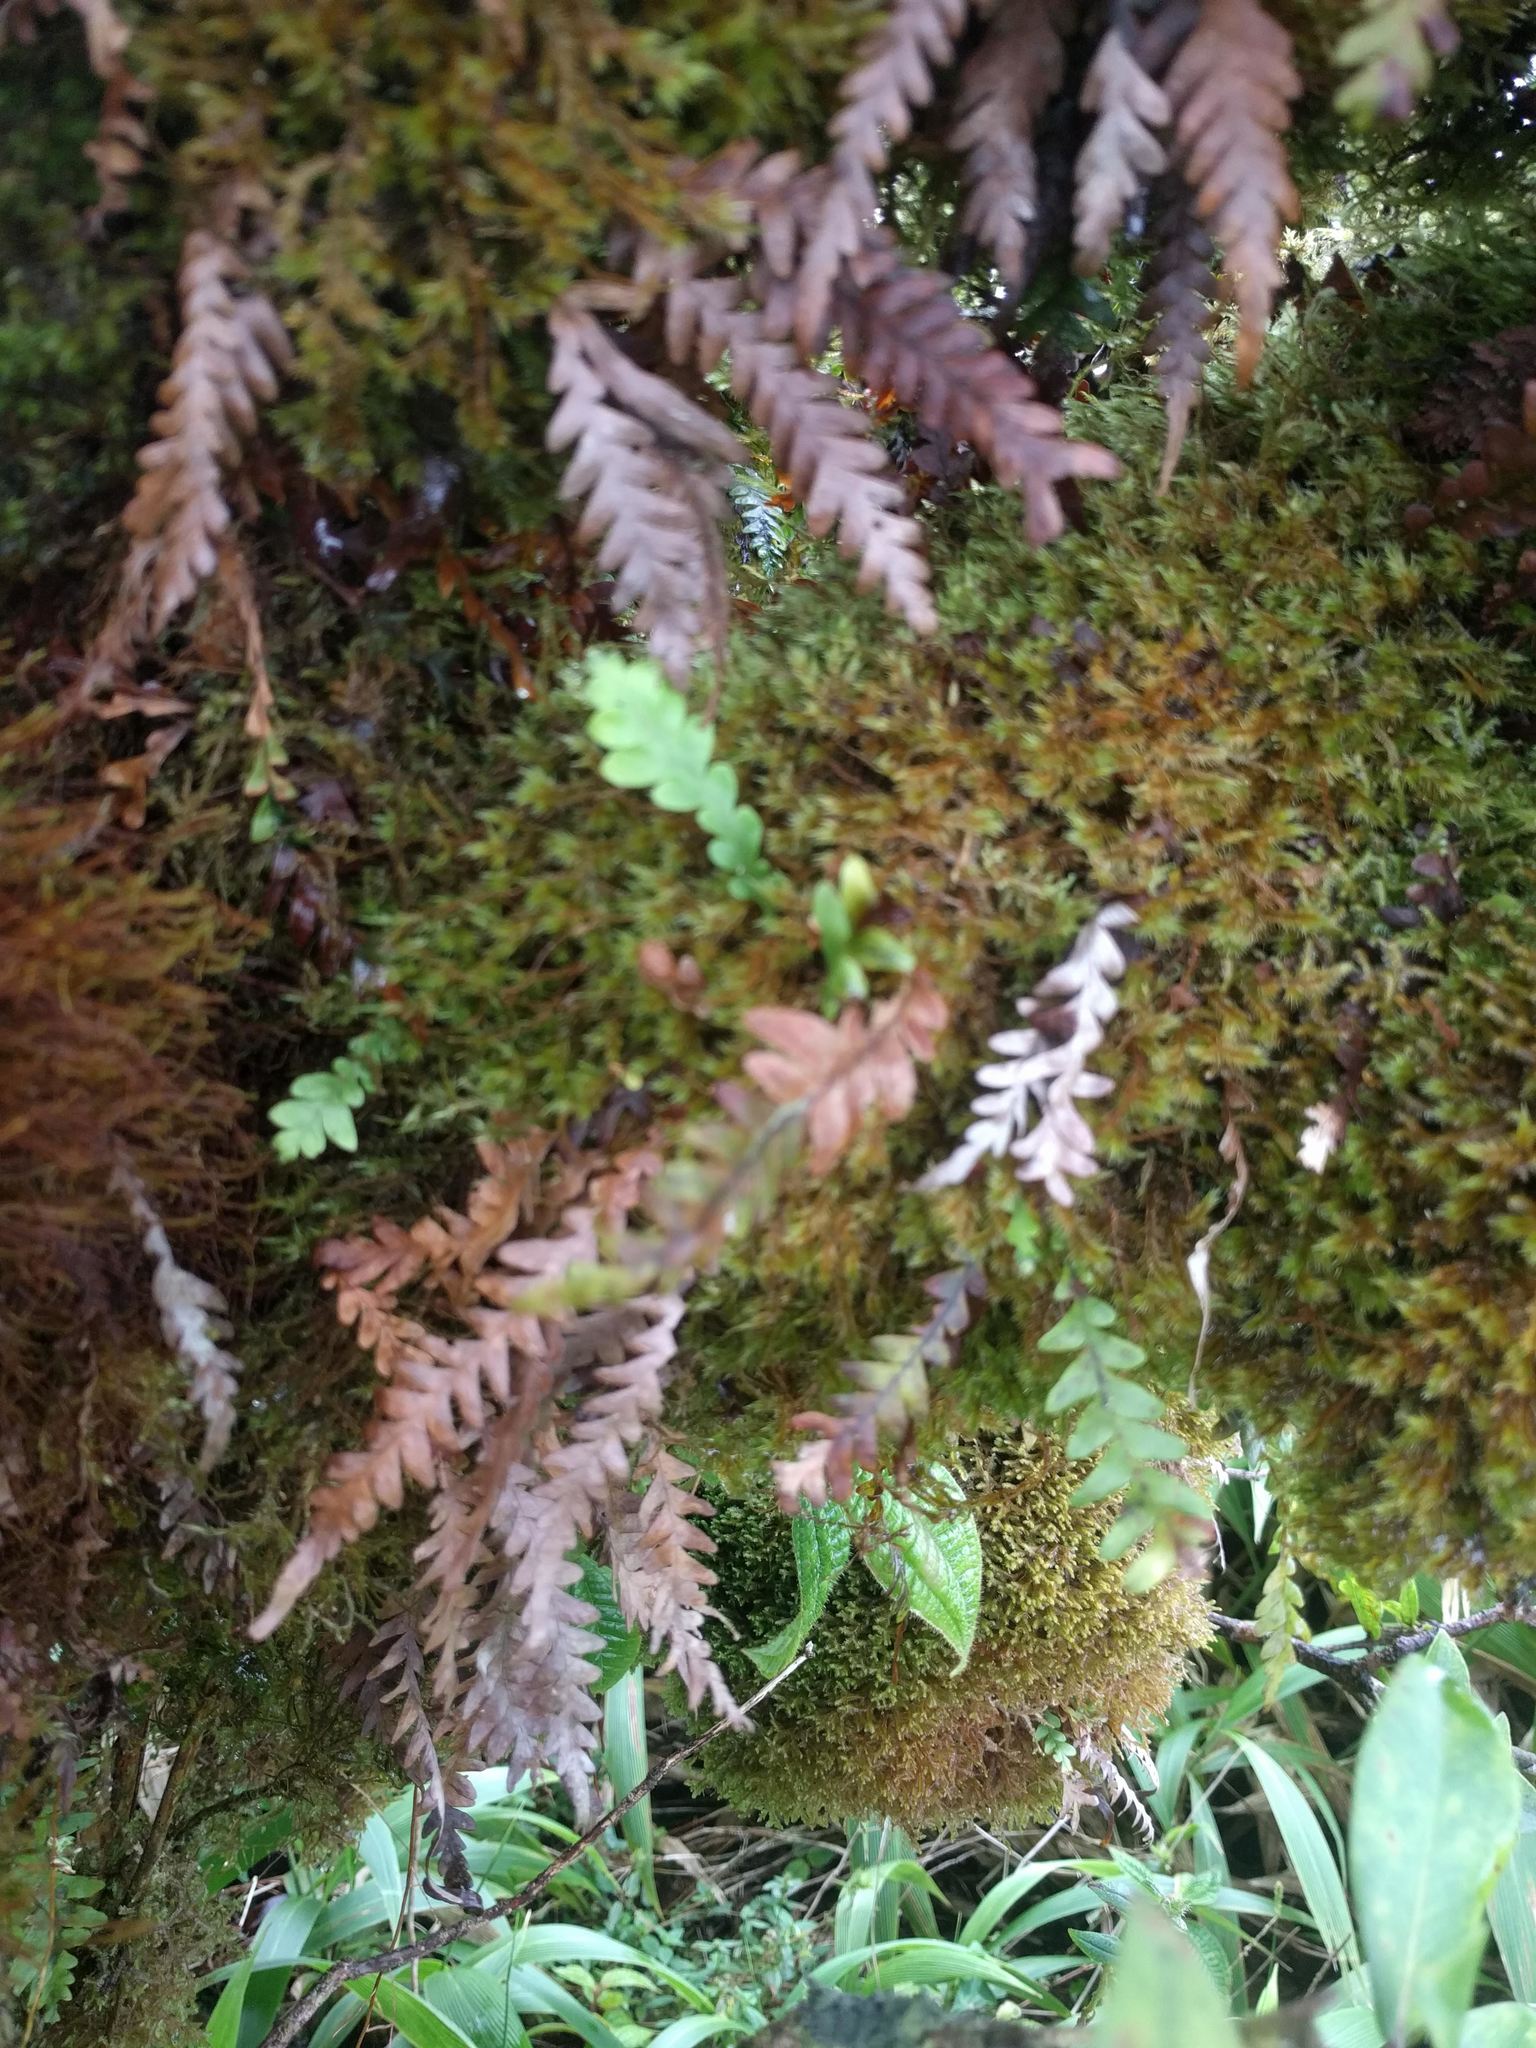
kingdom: Plantae
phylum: Tracheophyta
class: Polypodiopsida
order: Polypodiales
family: Polypodiaceae
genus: Adenophorus
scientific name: Adenophorus pinnatifidus
